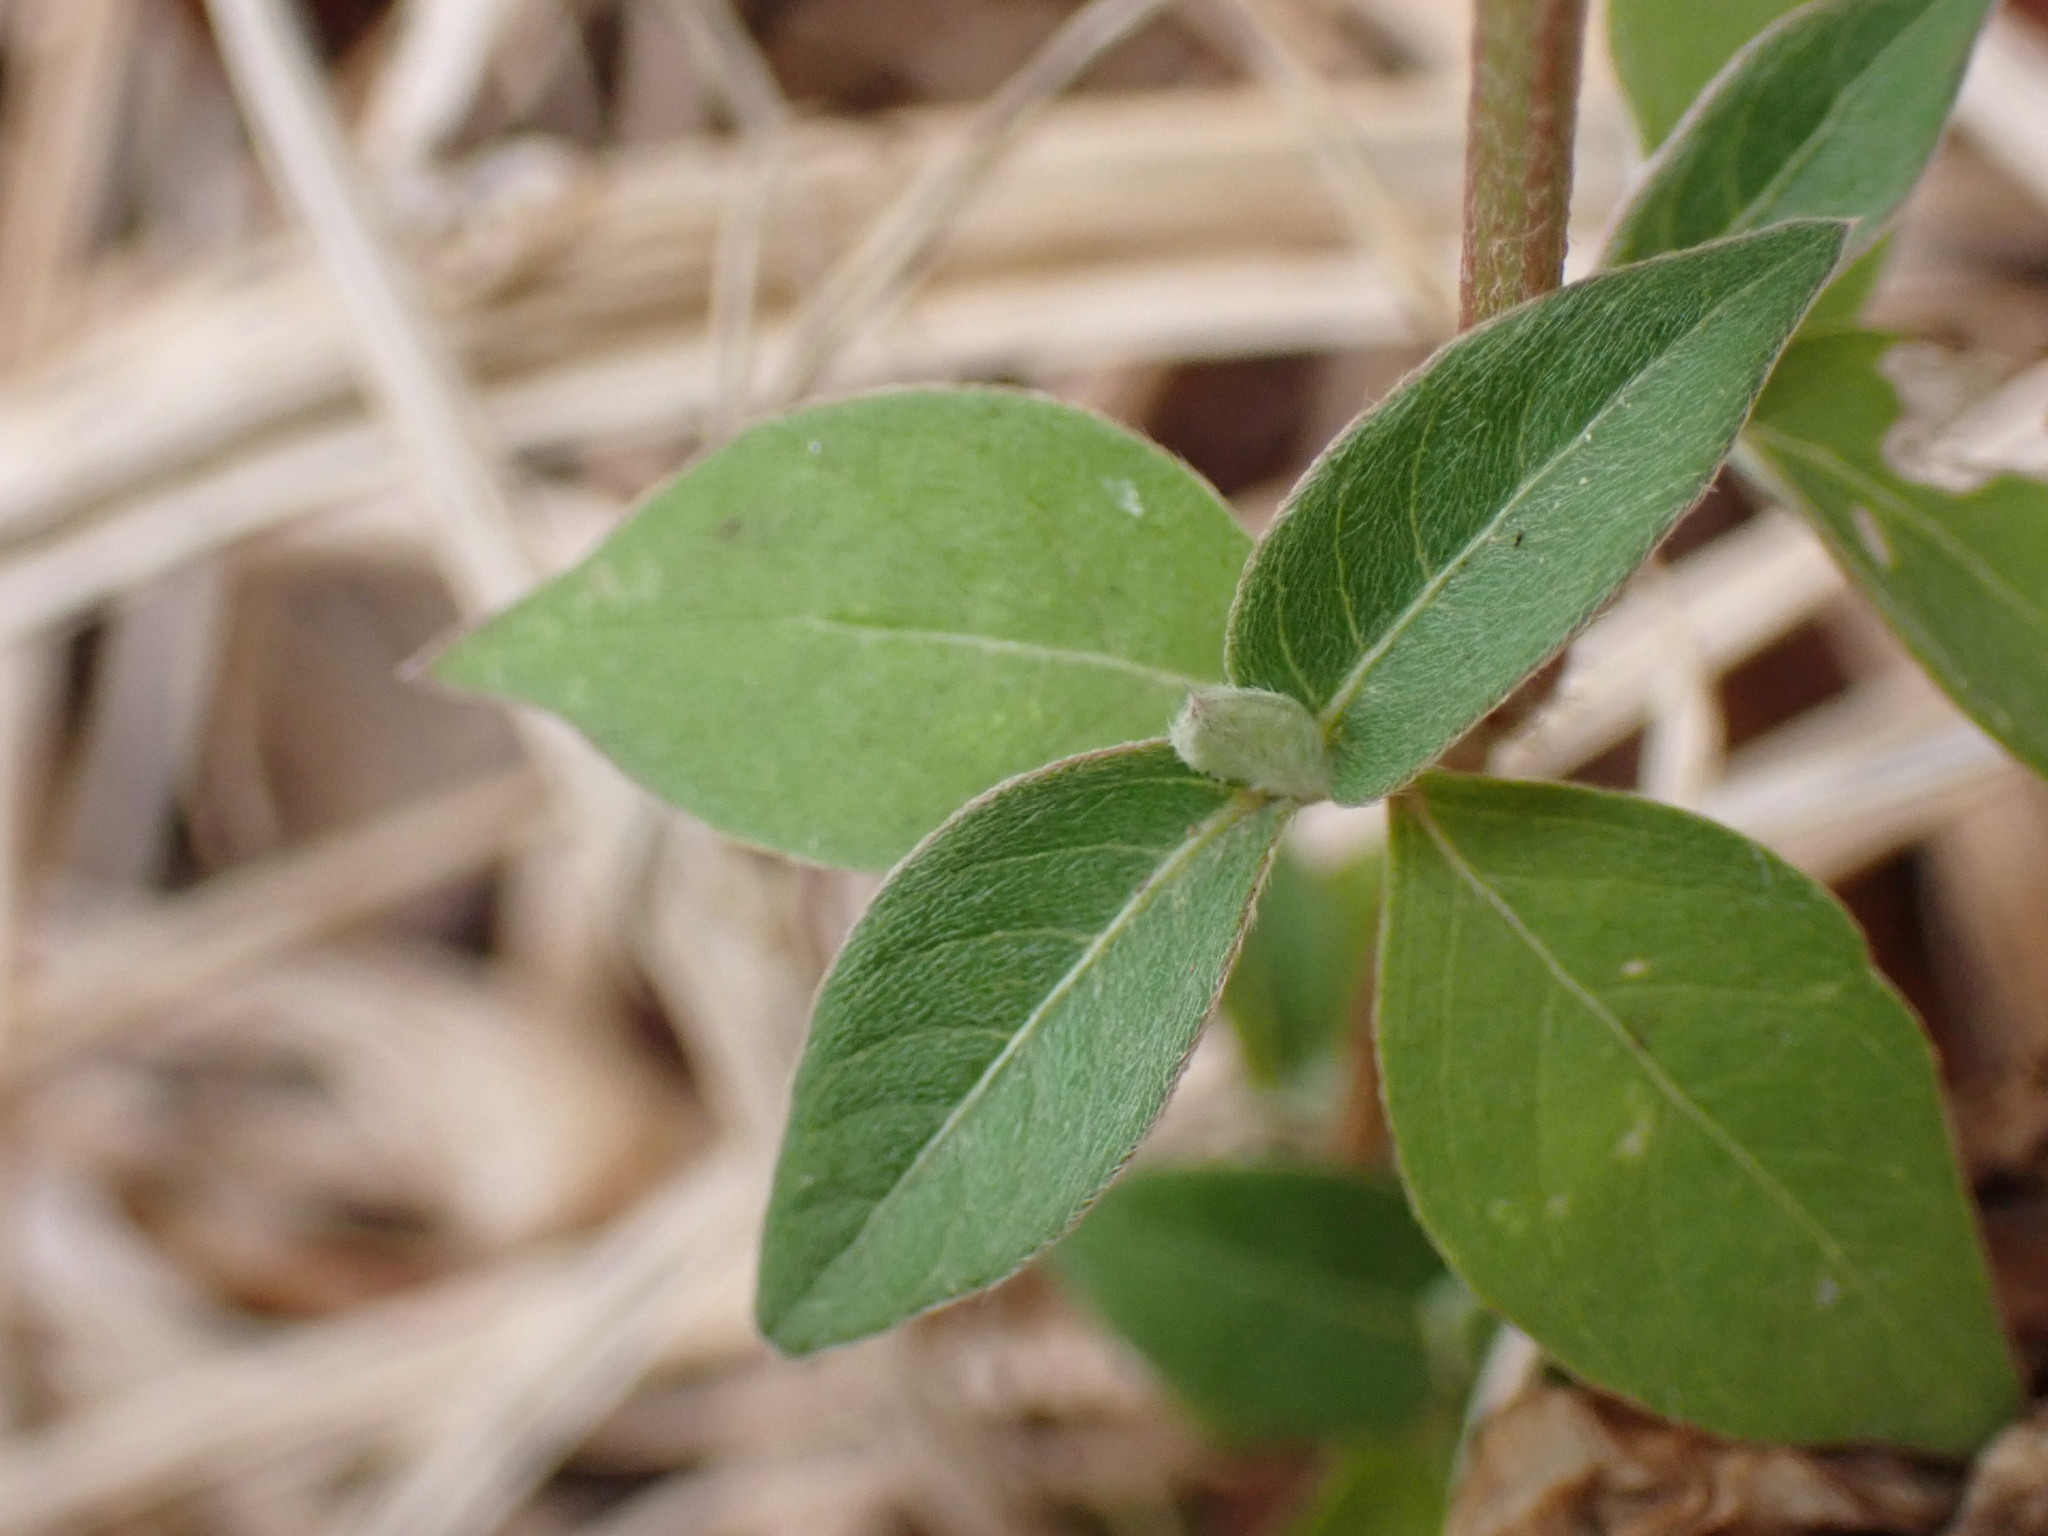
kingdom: Plantae
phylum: Tracheophyta
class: Magnoliopsida
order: Caryophyllales
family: Amaranthaceae
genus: Achyranthes
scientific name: Achyranthes aspera
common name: Devil's horsewhip
